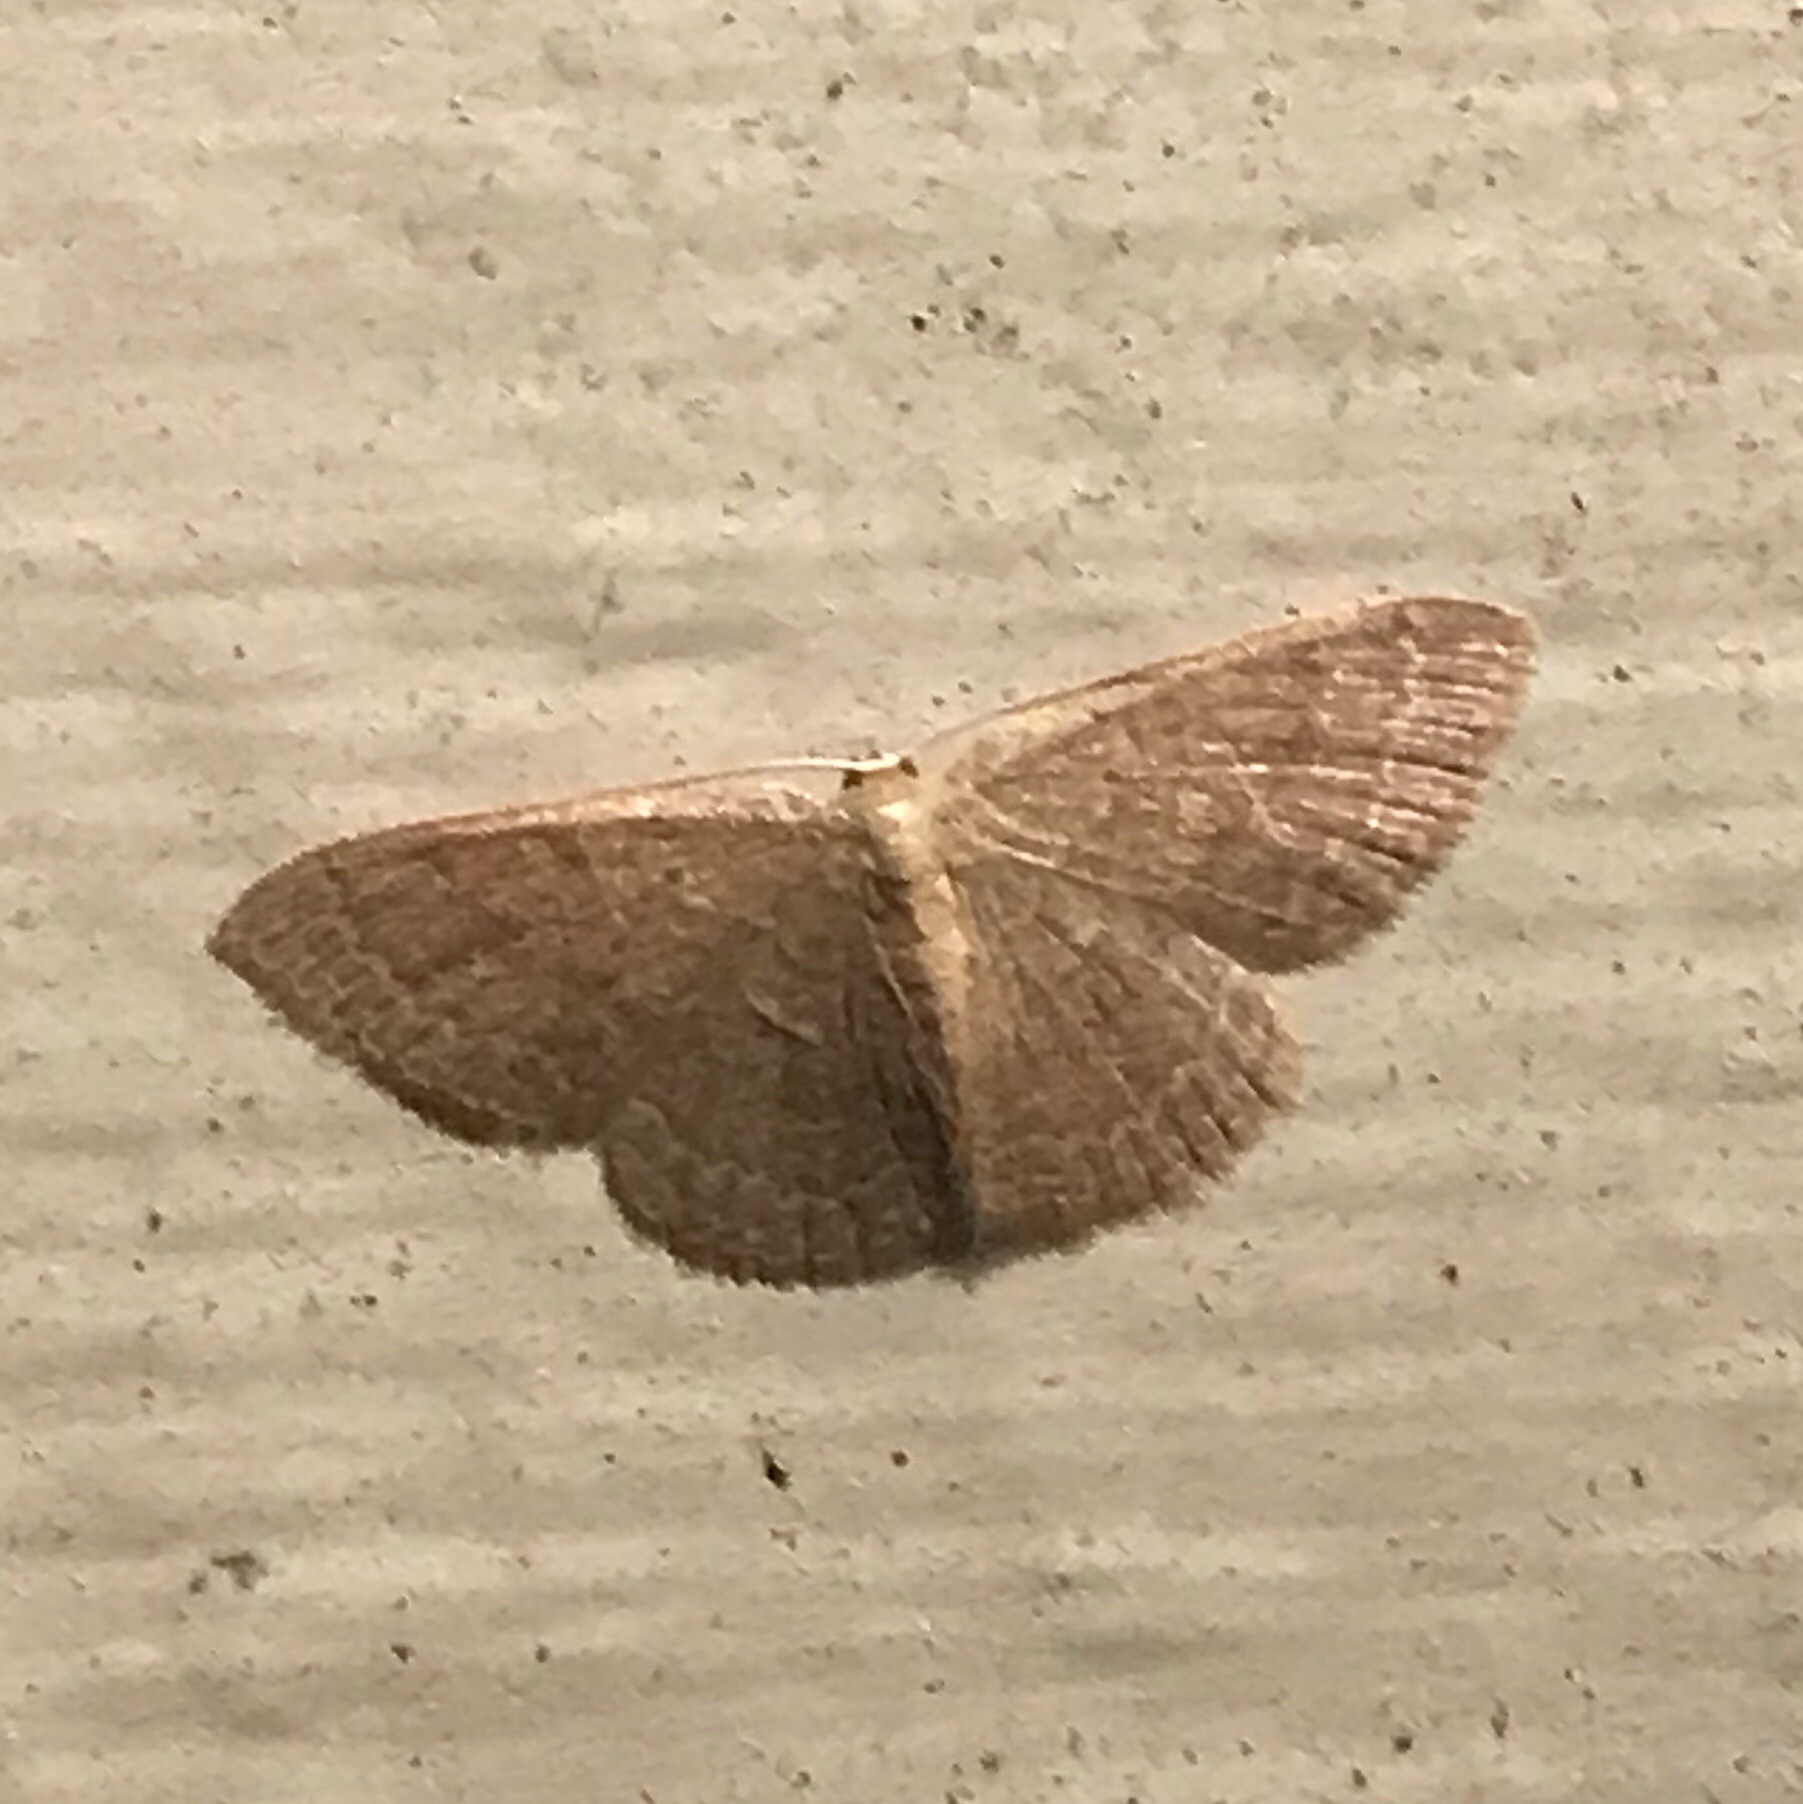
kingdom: Animalia
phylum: Arthropoda
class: Insecta
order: Lepidoptera
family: Geometridae
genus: Pleuroprucha
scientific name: Pleuroprucha insulsaria
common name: Common tan wave
